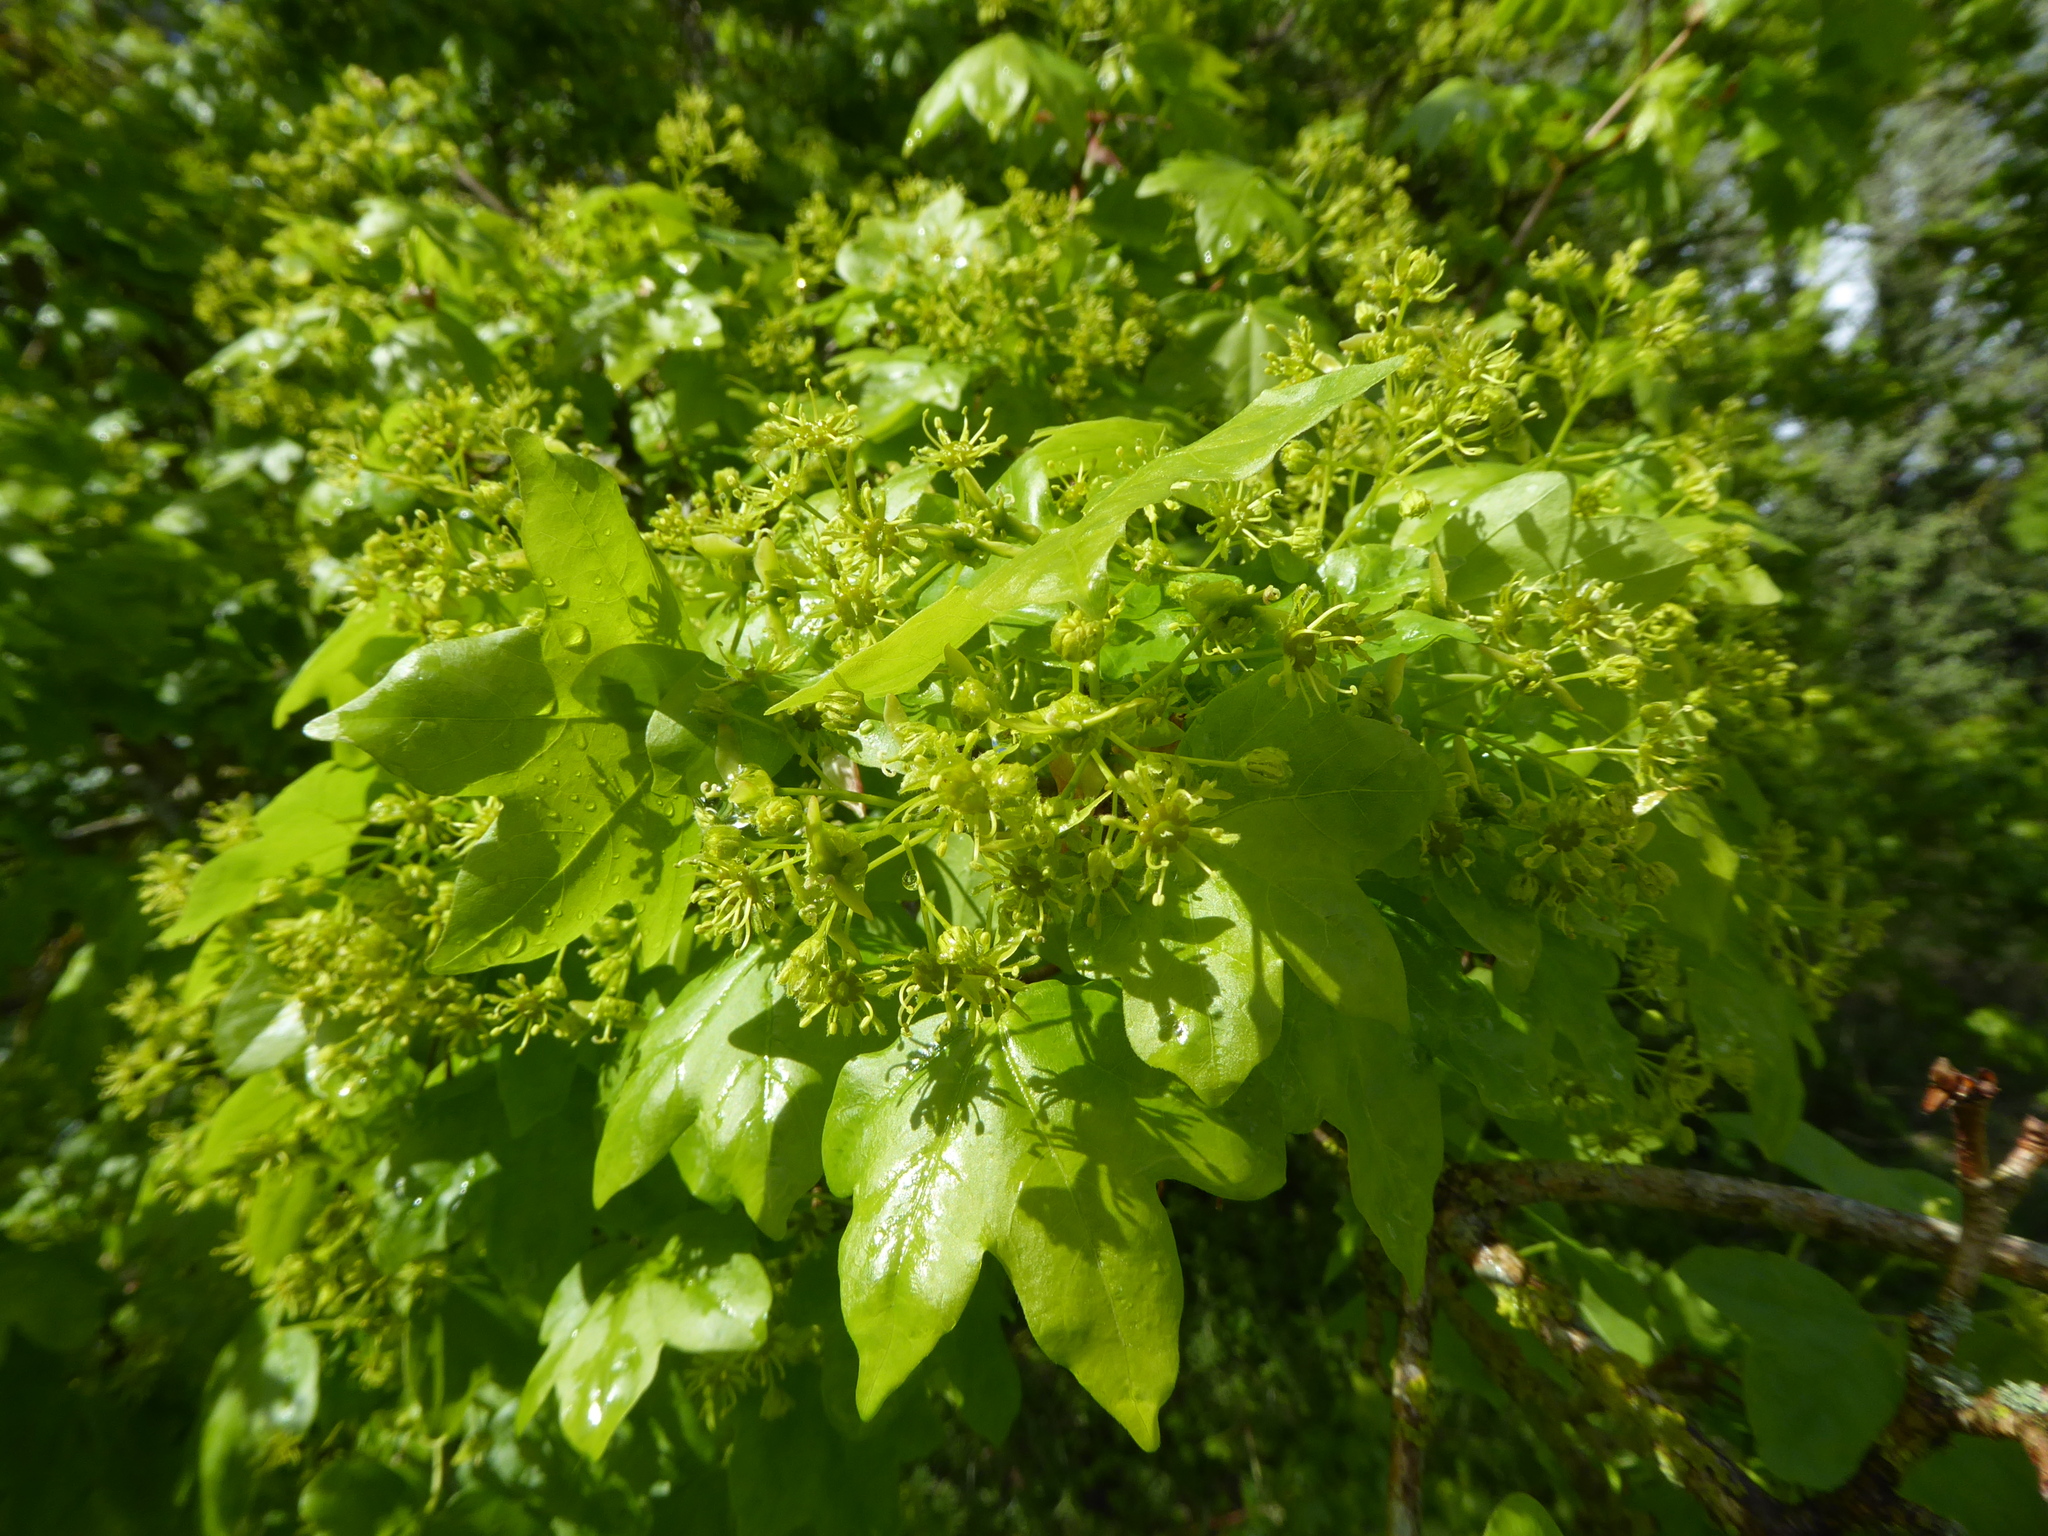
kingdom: Plantae
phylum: Tracheophyta
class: Magnoliopsida
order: Sapindales
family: Sapindaceae
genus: Acer
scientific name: Acer campestre
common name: Field maple
